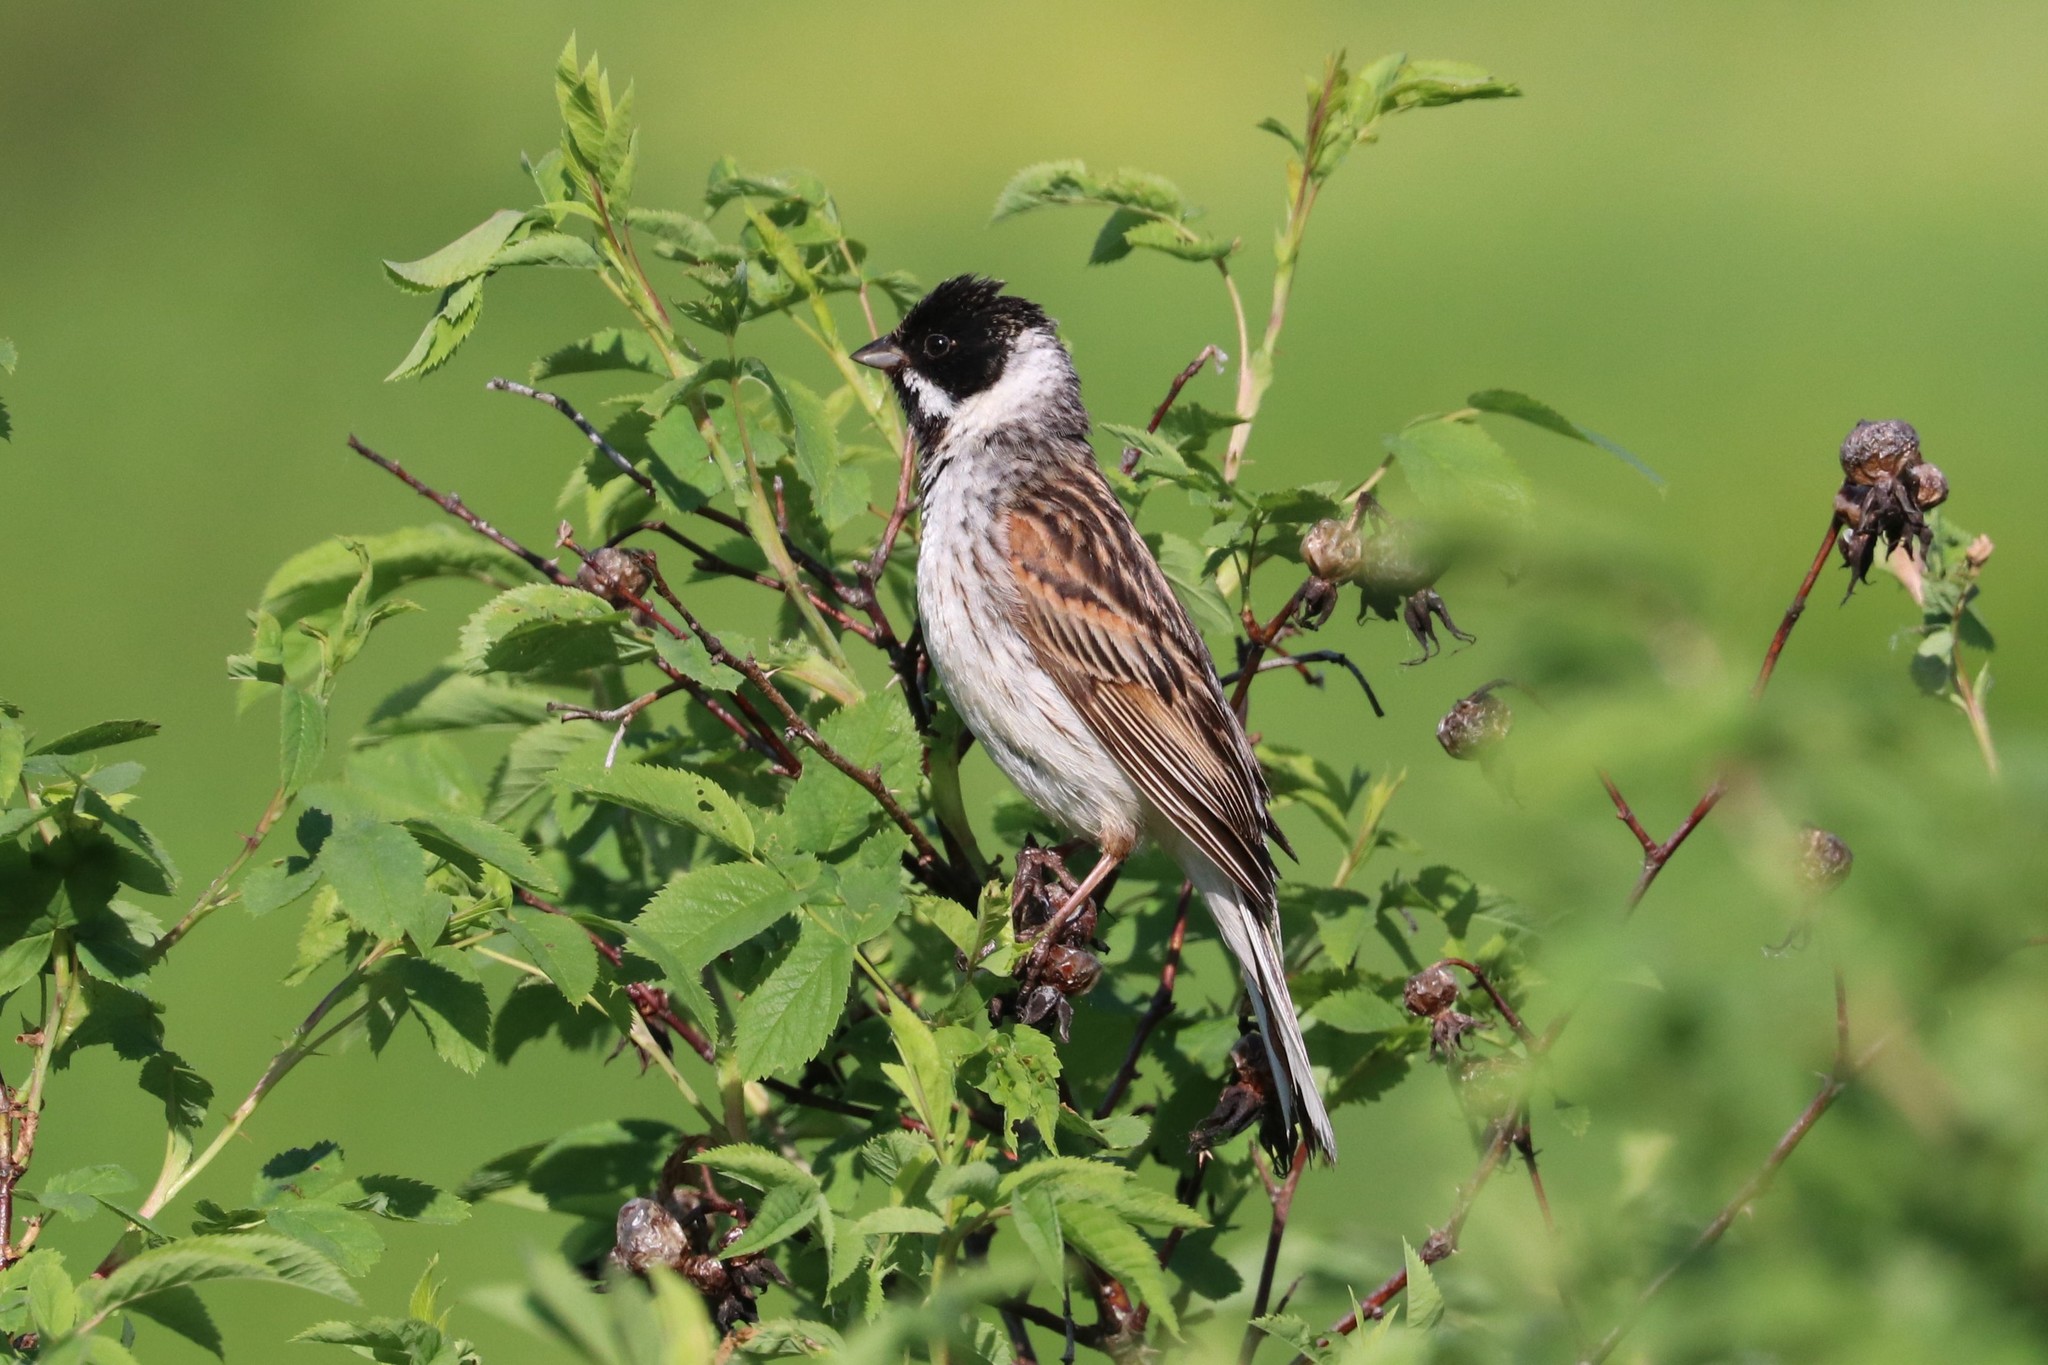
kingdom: Animalia
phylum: Chordata
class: Aves
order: Passeriformes
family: Emberizidae
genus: Emberiza
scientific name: Emberiza schoeniclus
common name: Reed bunting
